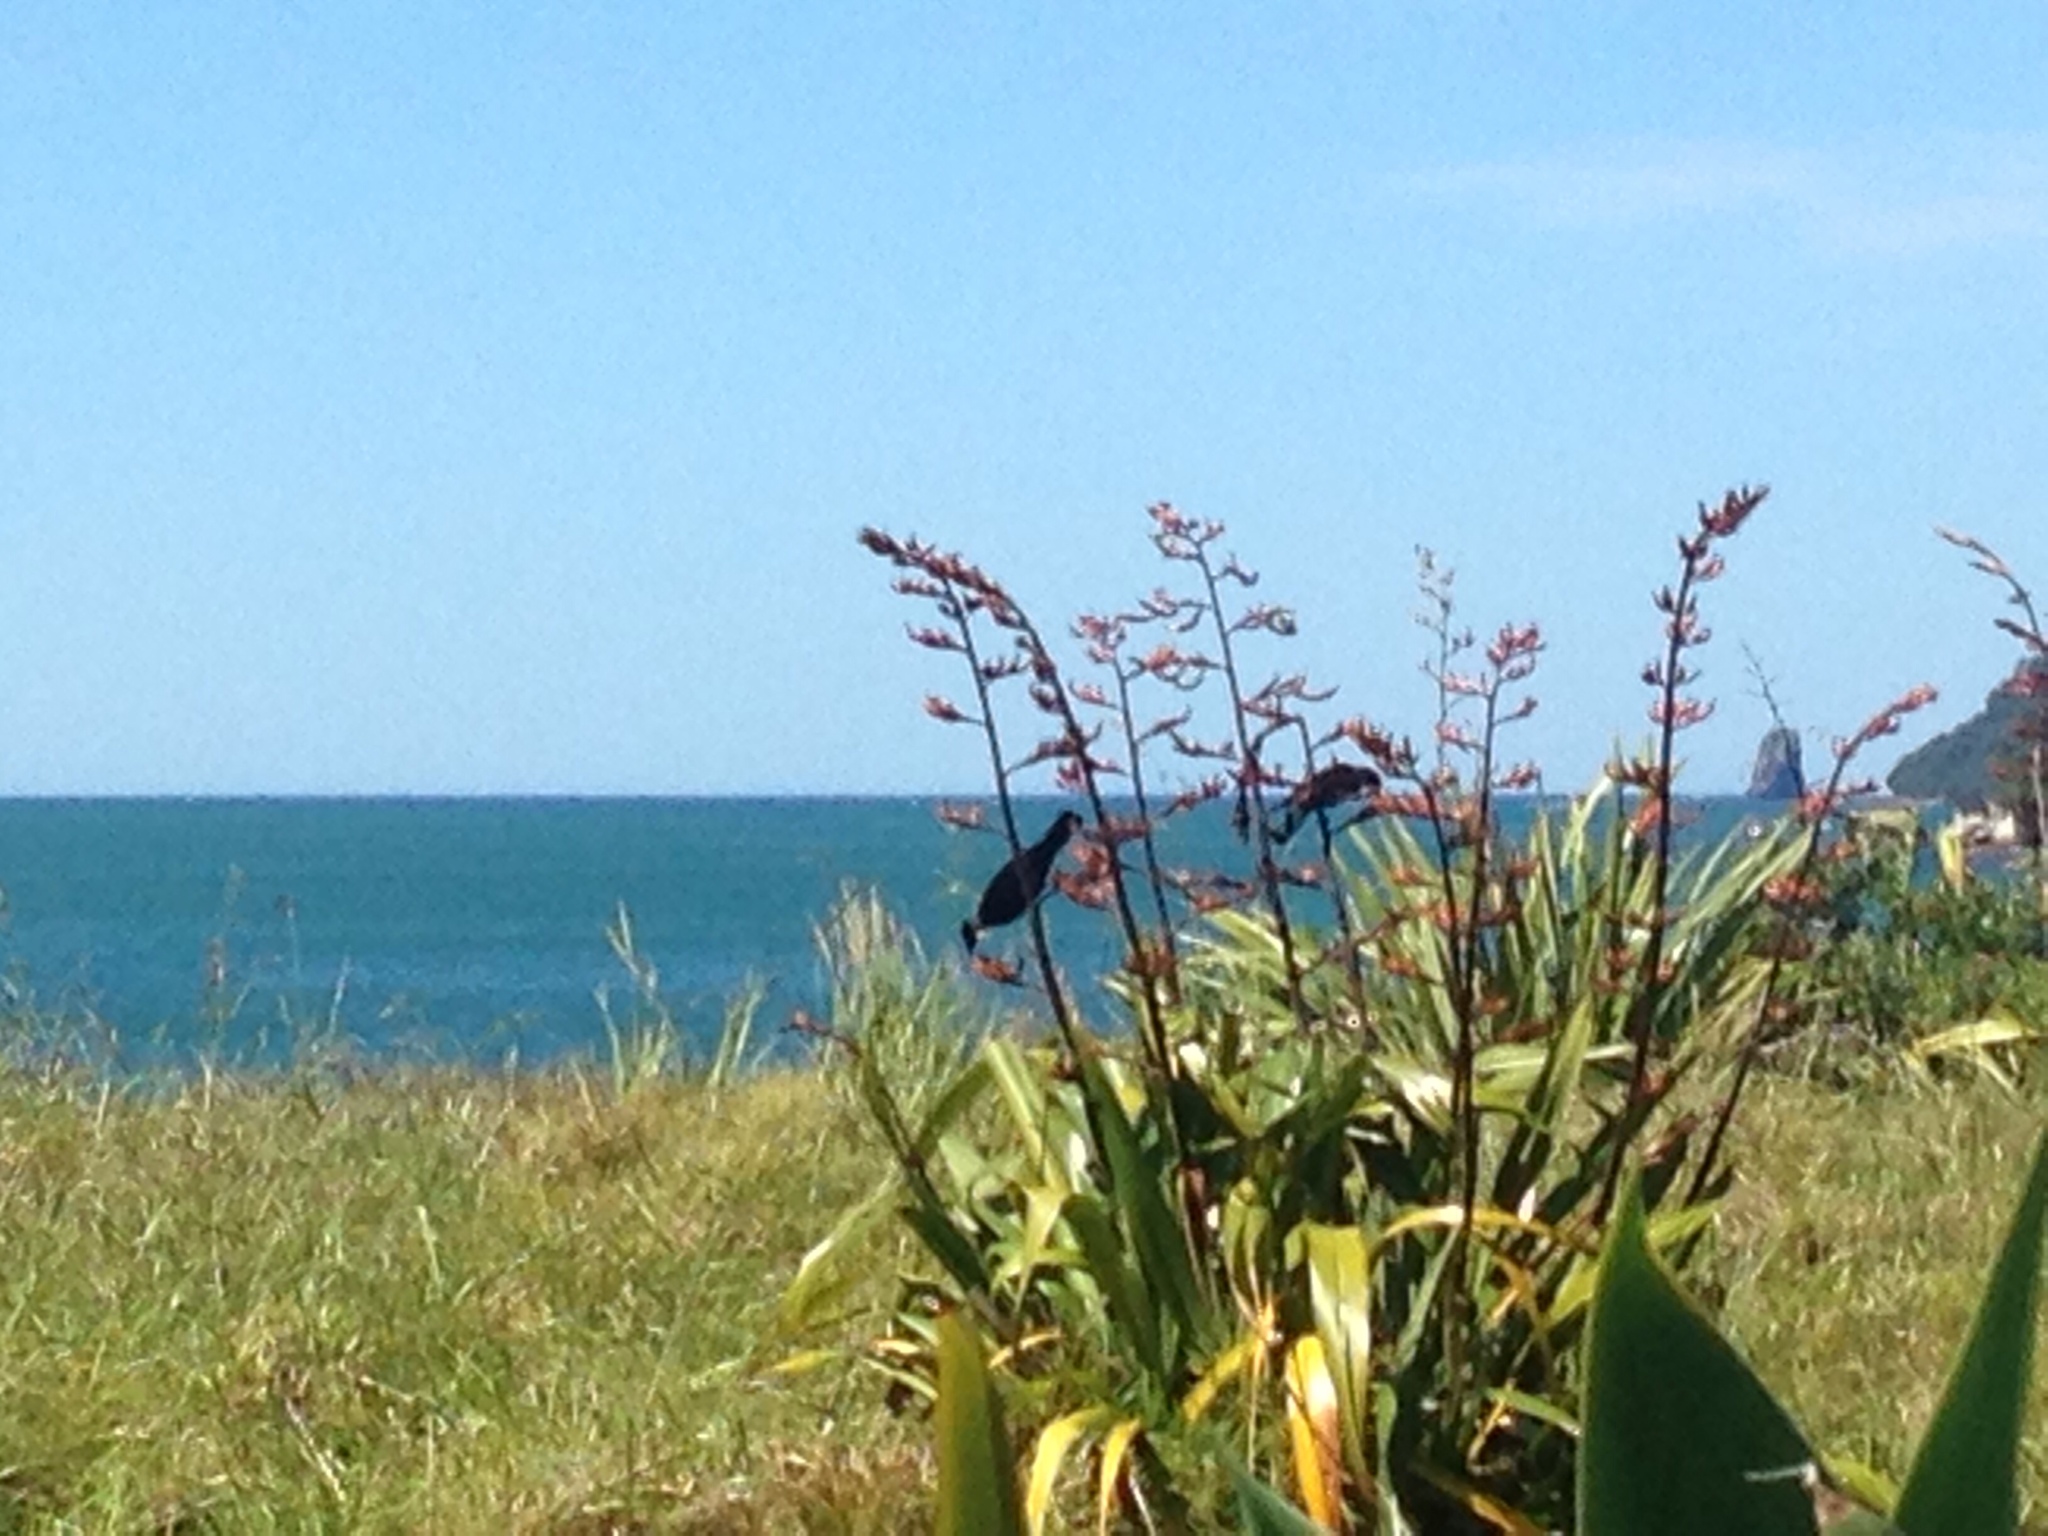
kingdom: Animalia
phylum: Chordata
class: Aves
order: Passeriformes
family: Meliphagidae
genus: Prosthemadera
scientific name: Prosthemadera novaeseelandiae
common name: Tui
